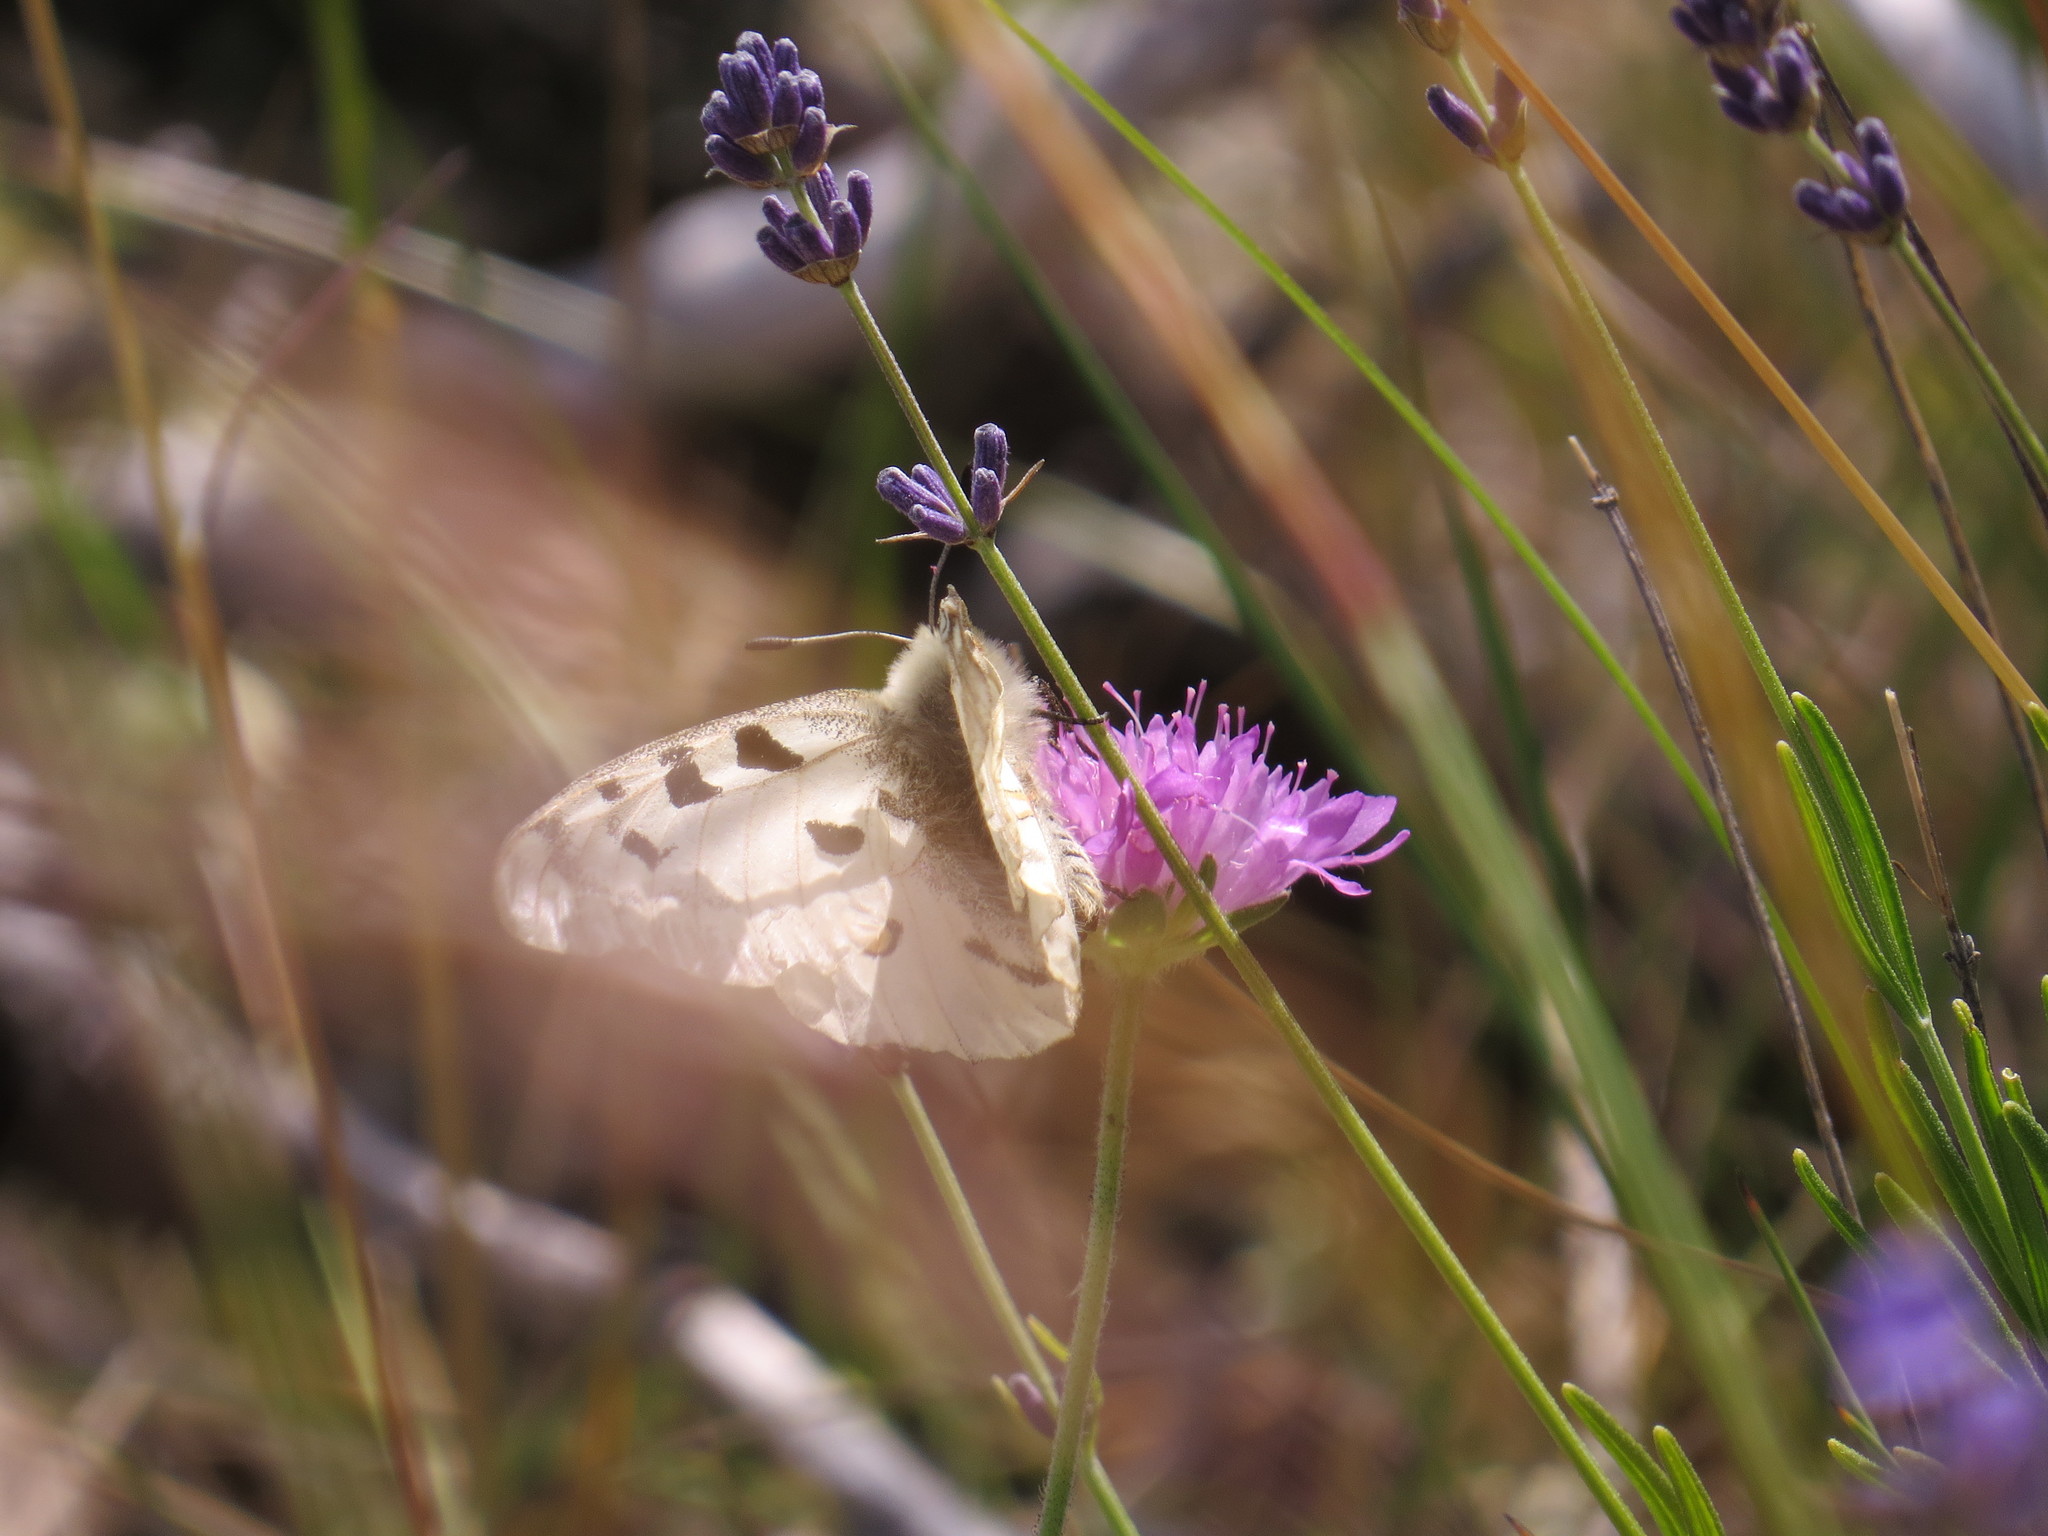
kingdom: Animalia
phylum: Arthropoda
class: Insecta
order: Lepidoptera
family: Papilionidae
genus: Parnassius
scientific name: Parnassius apollo
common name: Apollo
